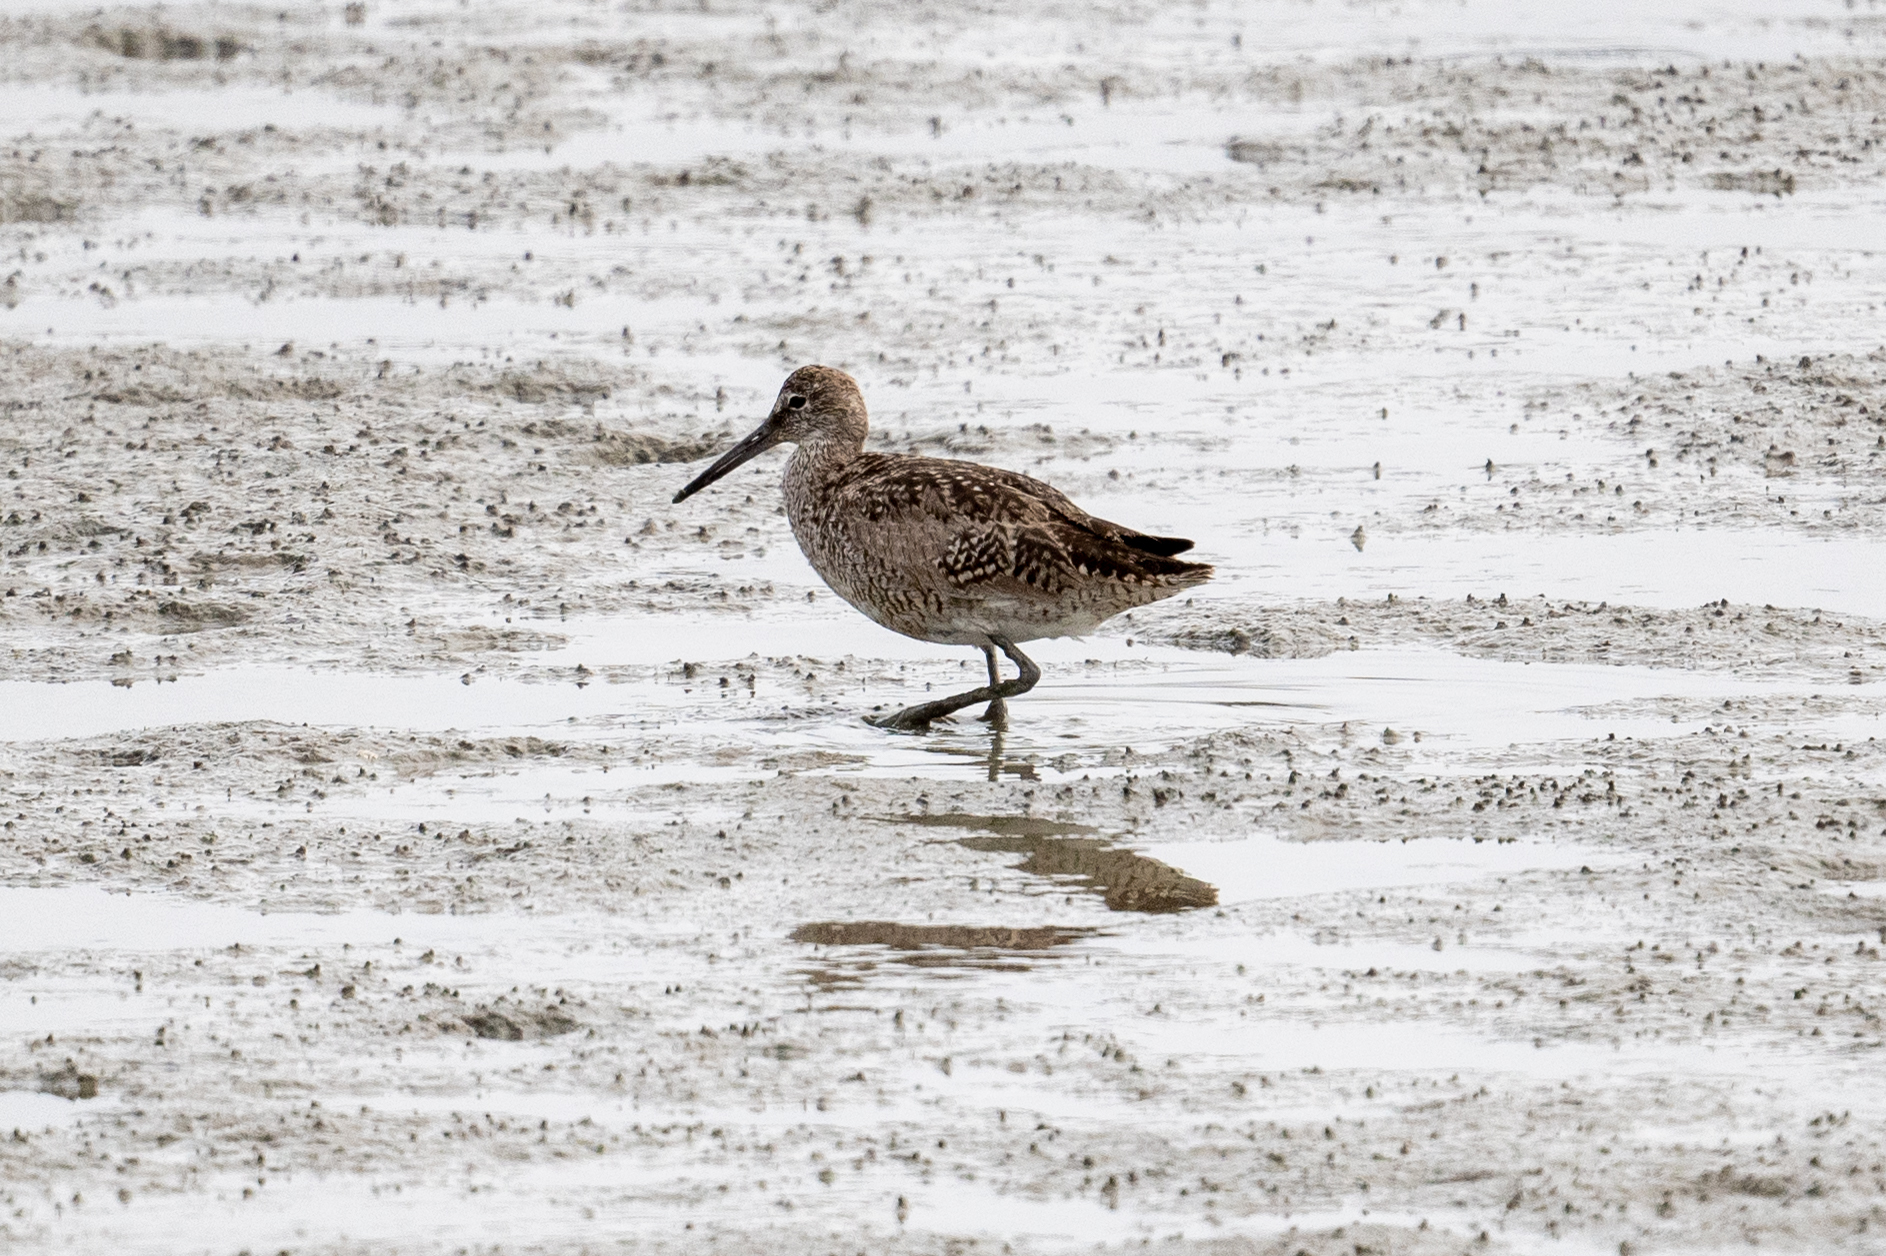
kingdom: Animalia
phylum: Chordata
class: Aves
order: Charadriiformes
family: Scolopacidae
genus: Tringa
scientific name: Tringa semipalmata
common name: Willet
